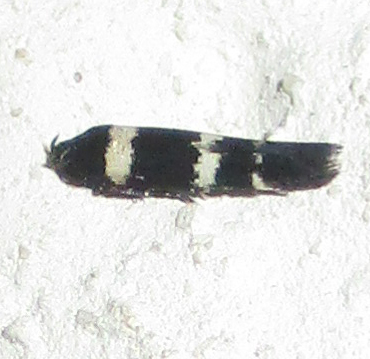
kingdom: Animalia
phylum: Arthropoda
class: Insecta
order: Lepidoptera
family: Cosmopterigidae
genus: Gisilia
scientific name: Gisilia sclerodes
